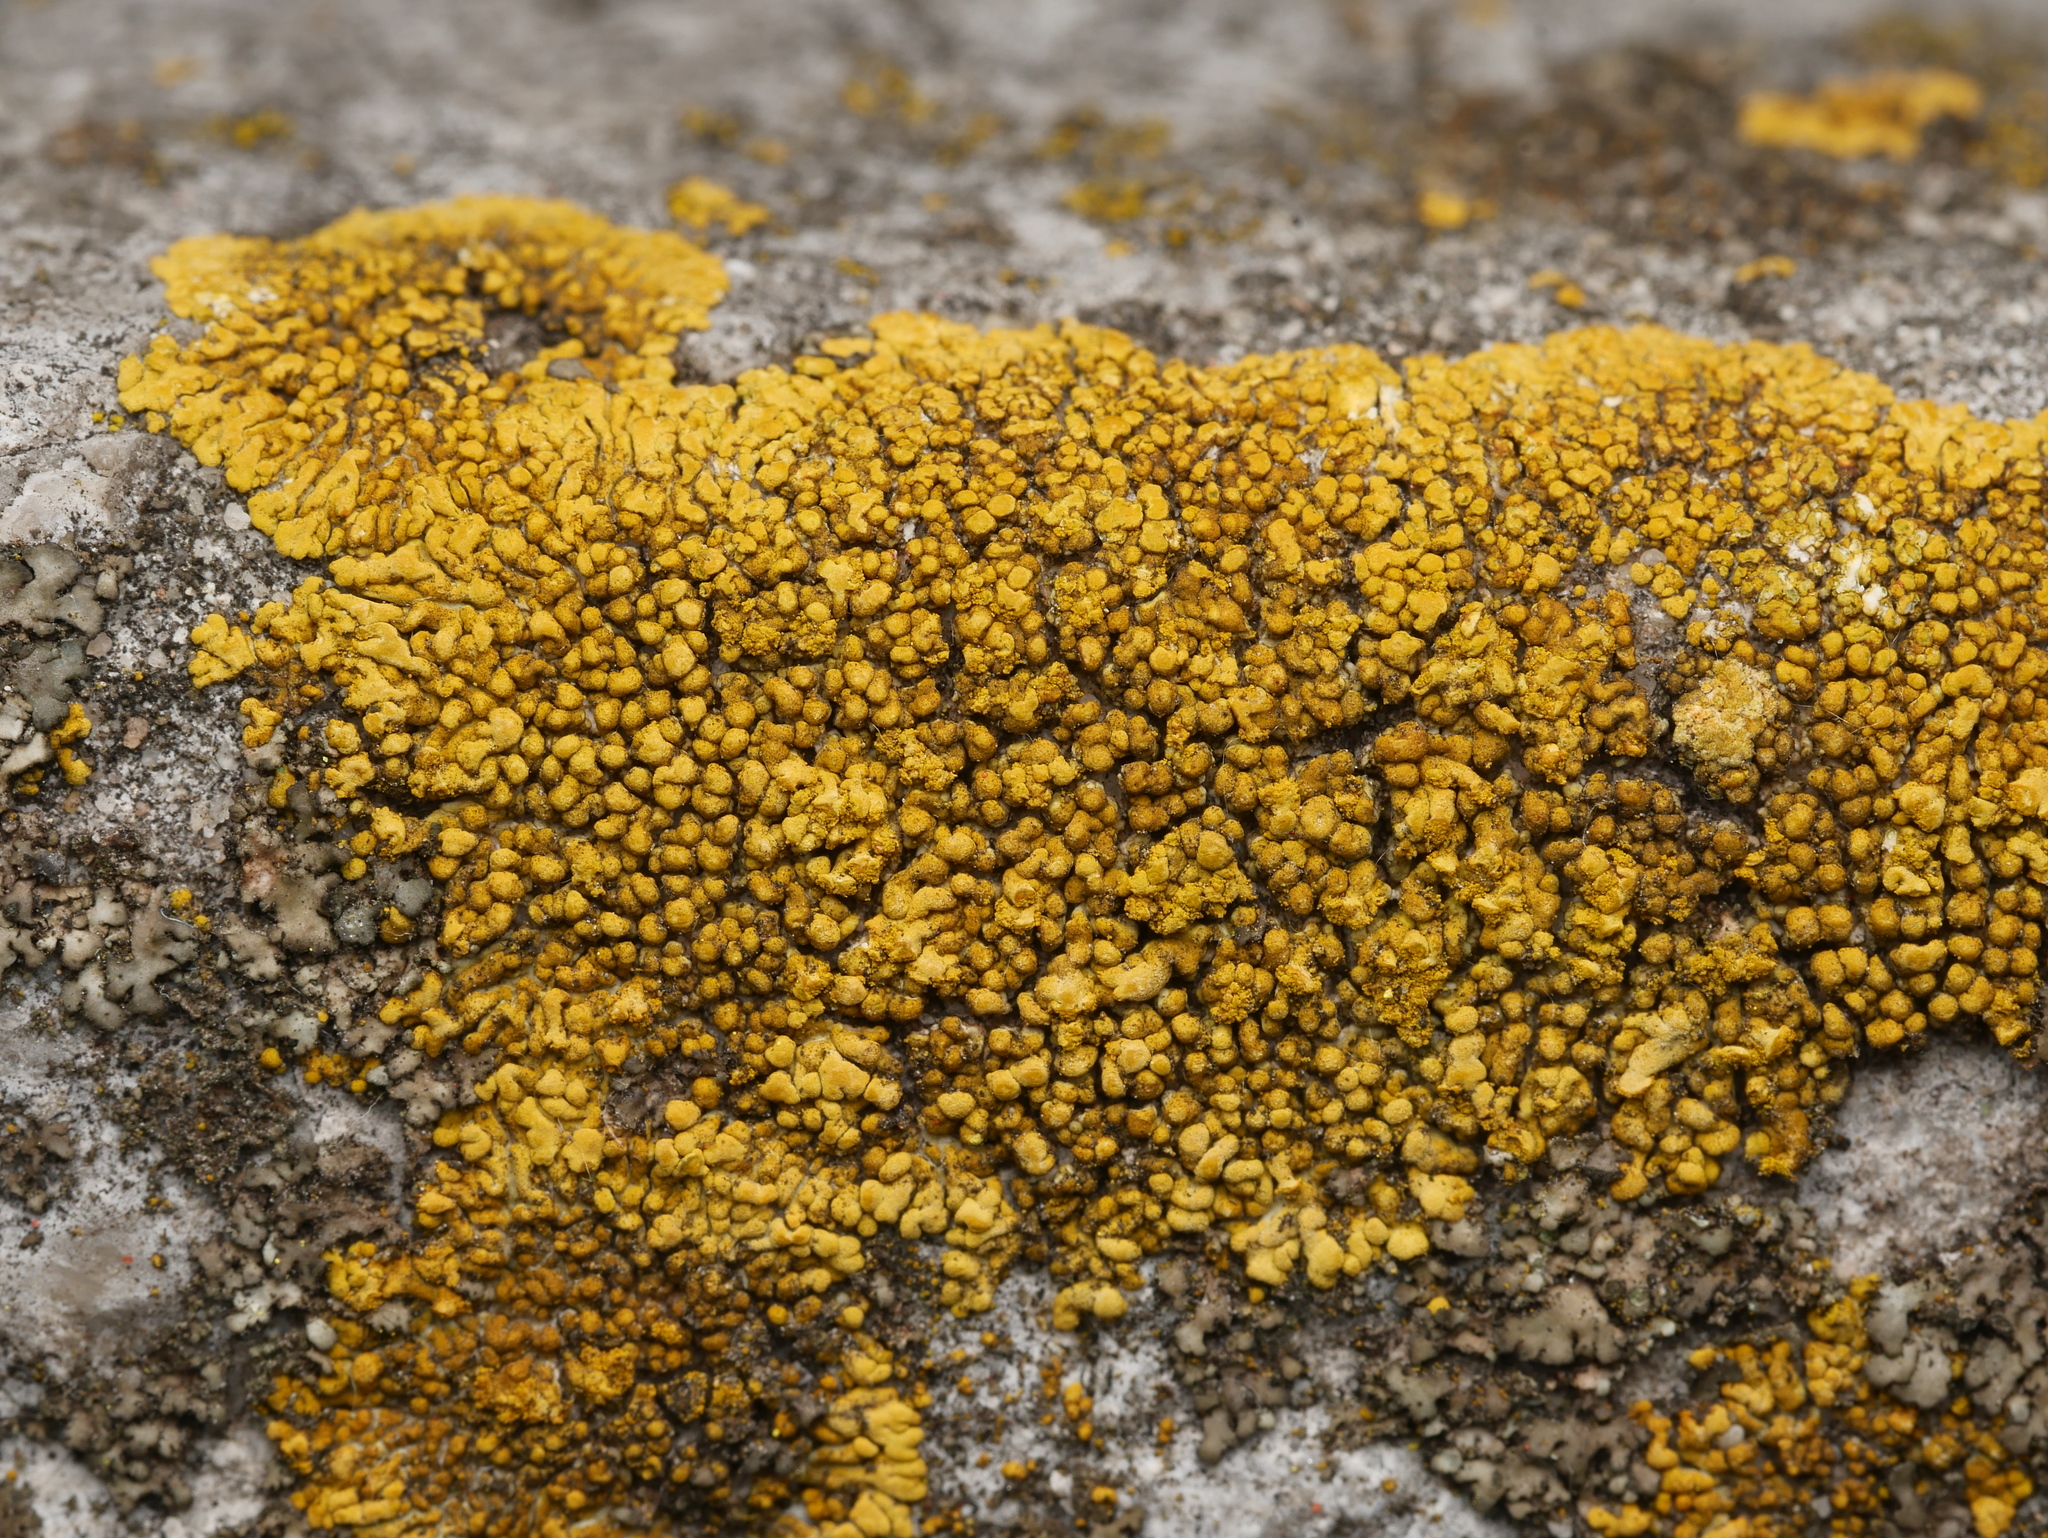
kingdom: Fungi
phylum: Ascomycota
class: Lecanoromycetes
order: Teloschistales
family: Teloschistaceae
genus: Calogaya
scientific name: Calogaya decipiens
